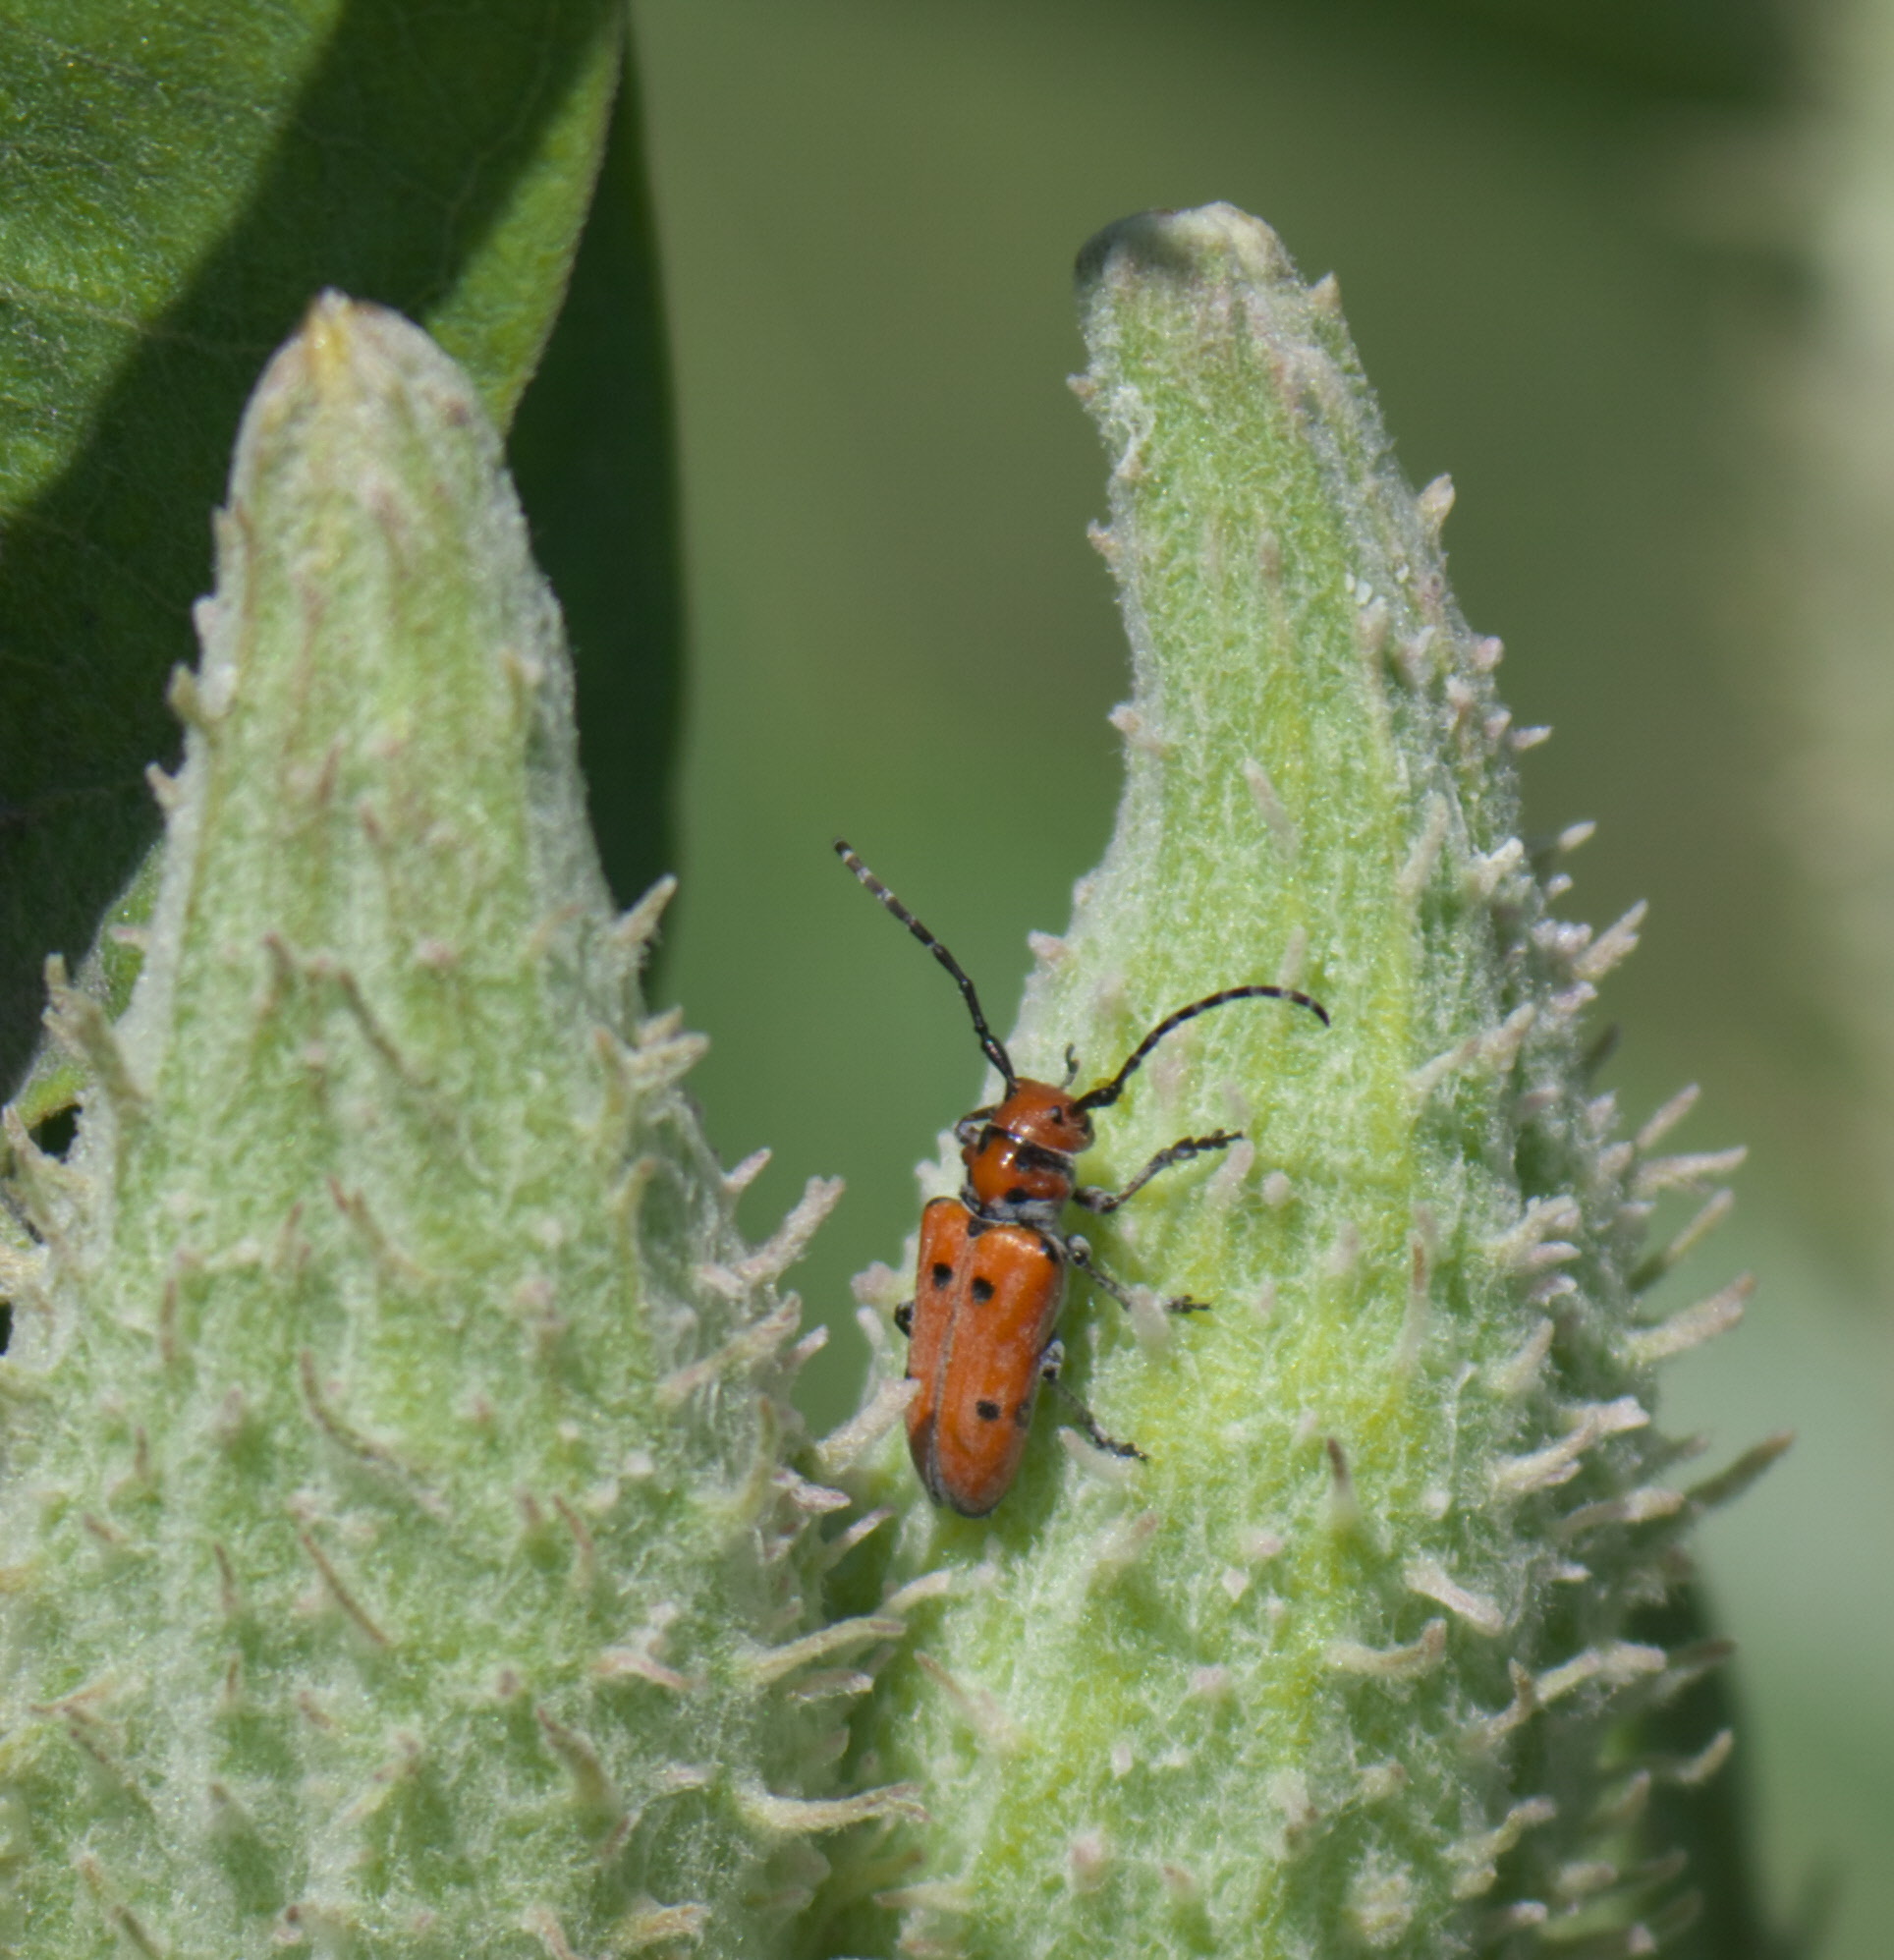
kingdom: Animalia
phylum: Arthropoda
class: Insecta
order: Coleoptera
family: Cerambycidae
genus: Tetraopes
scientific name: Tetraopes annulatus
